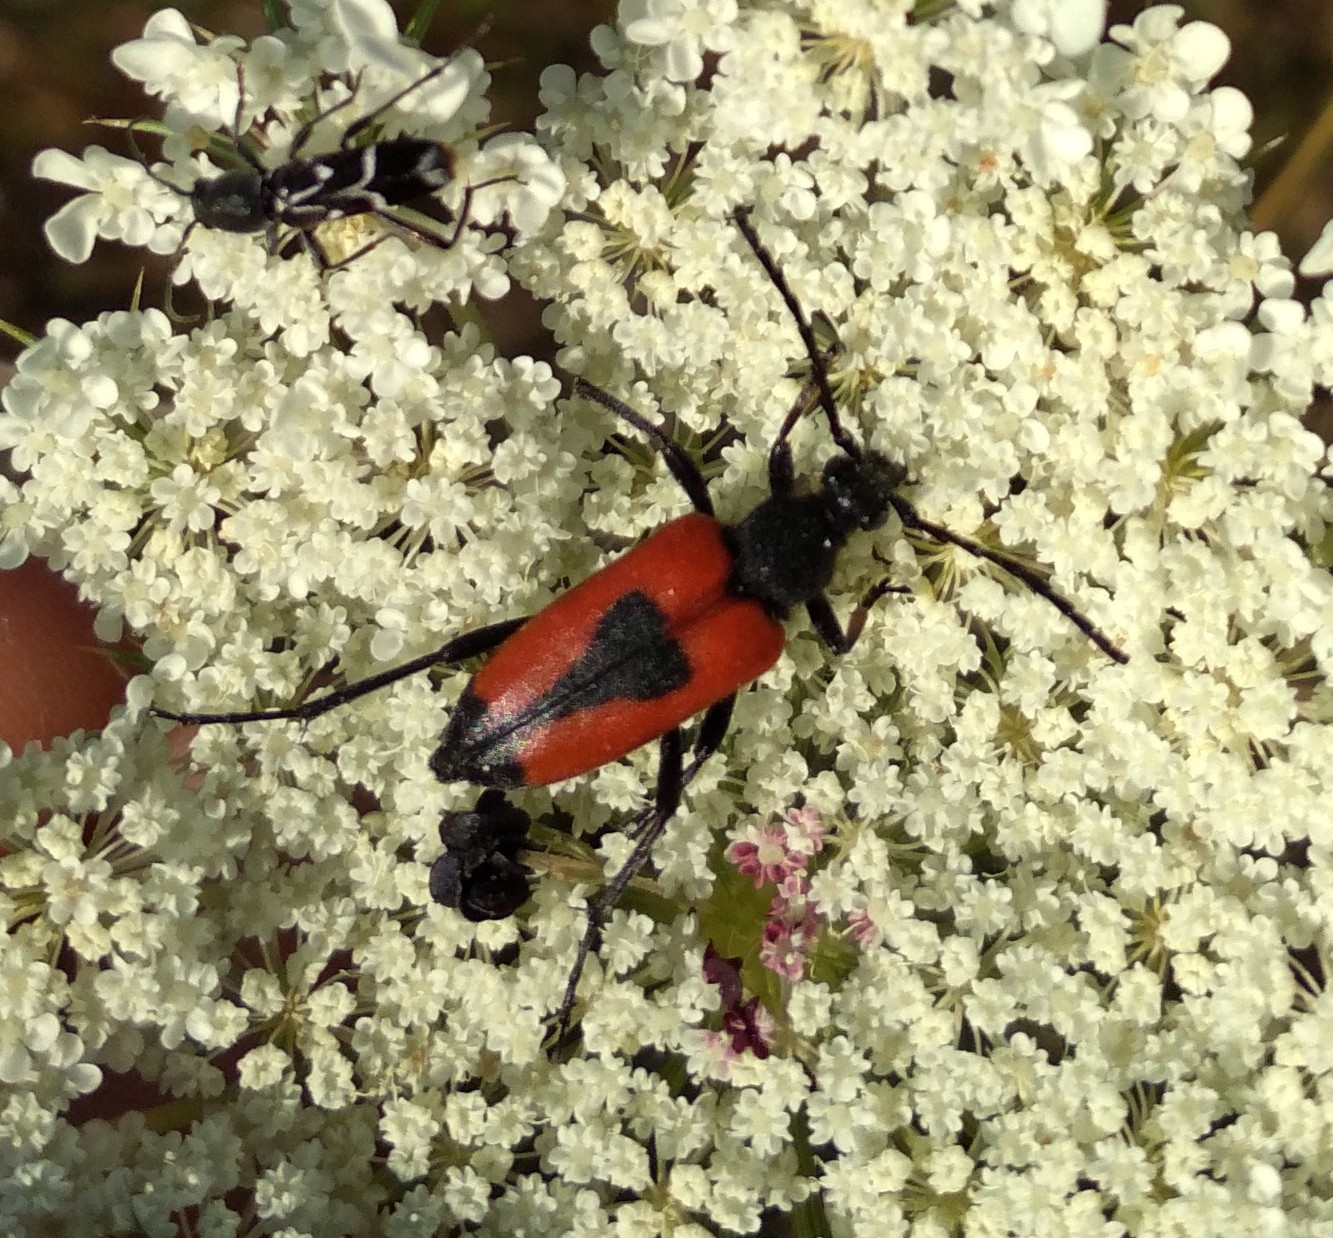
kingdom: Animalia
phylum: Arthropoda
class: Insecta
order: Coleoptera
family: Cerambycidae
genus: Stictoleptura
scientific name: Stictoleptura cordigera
